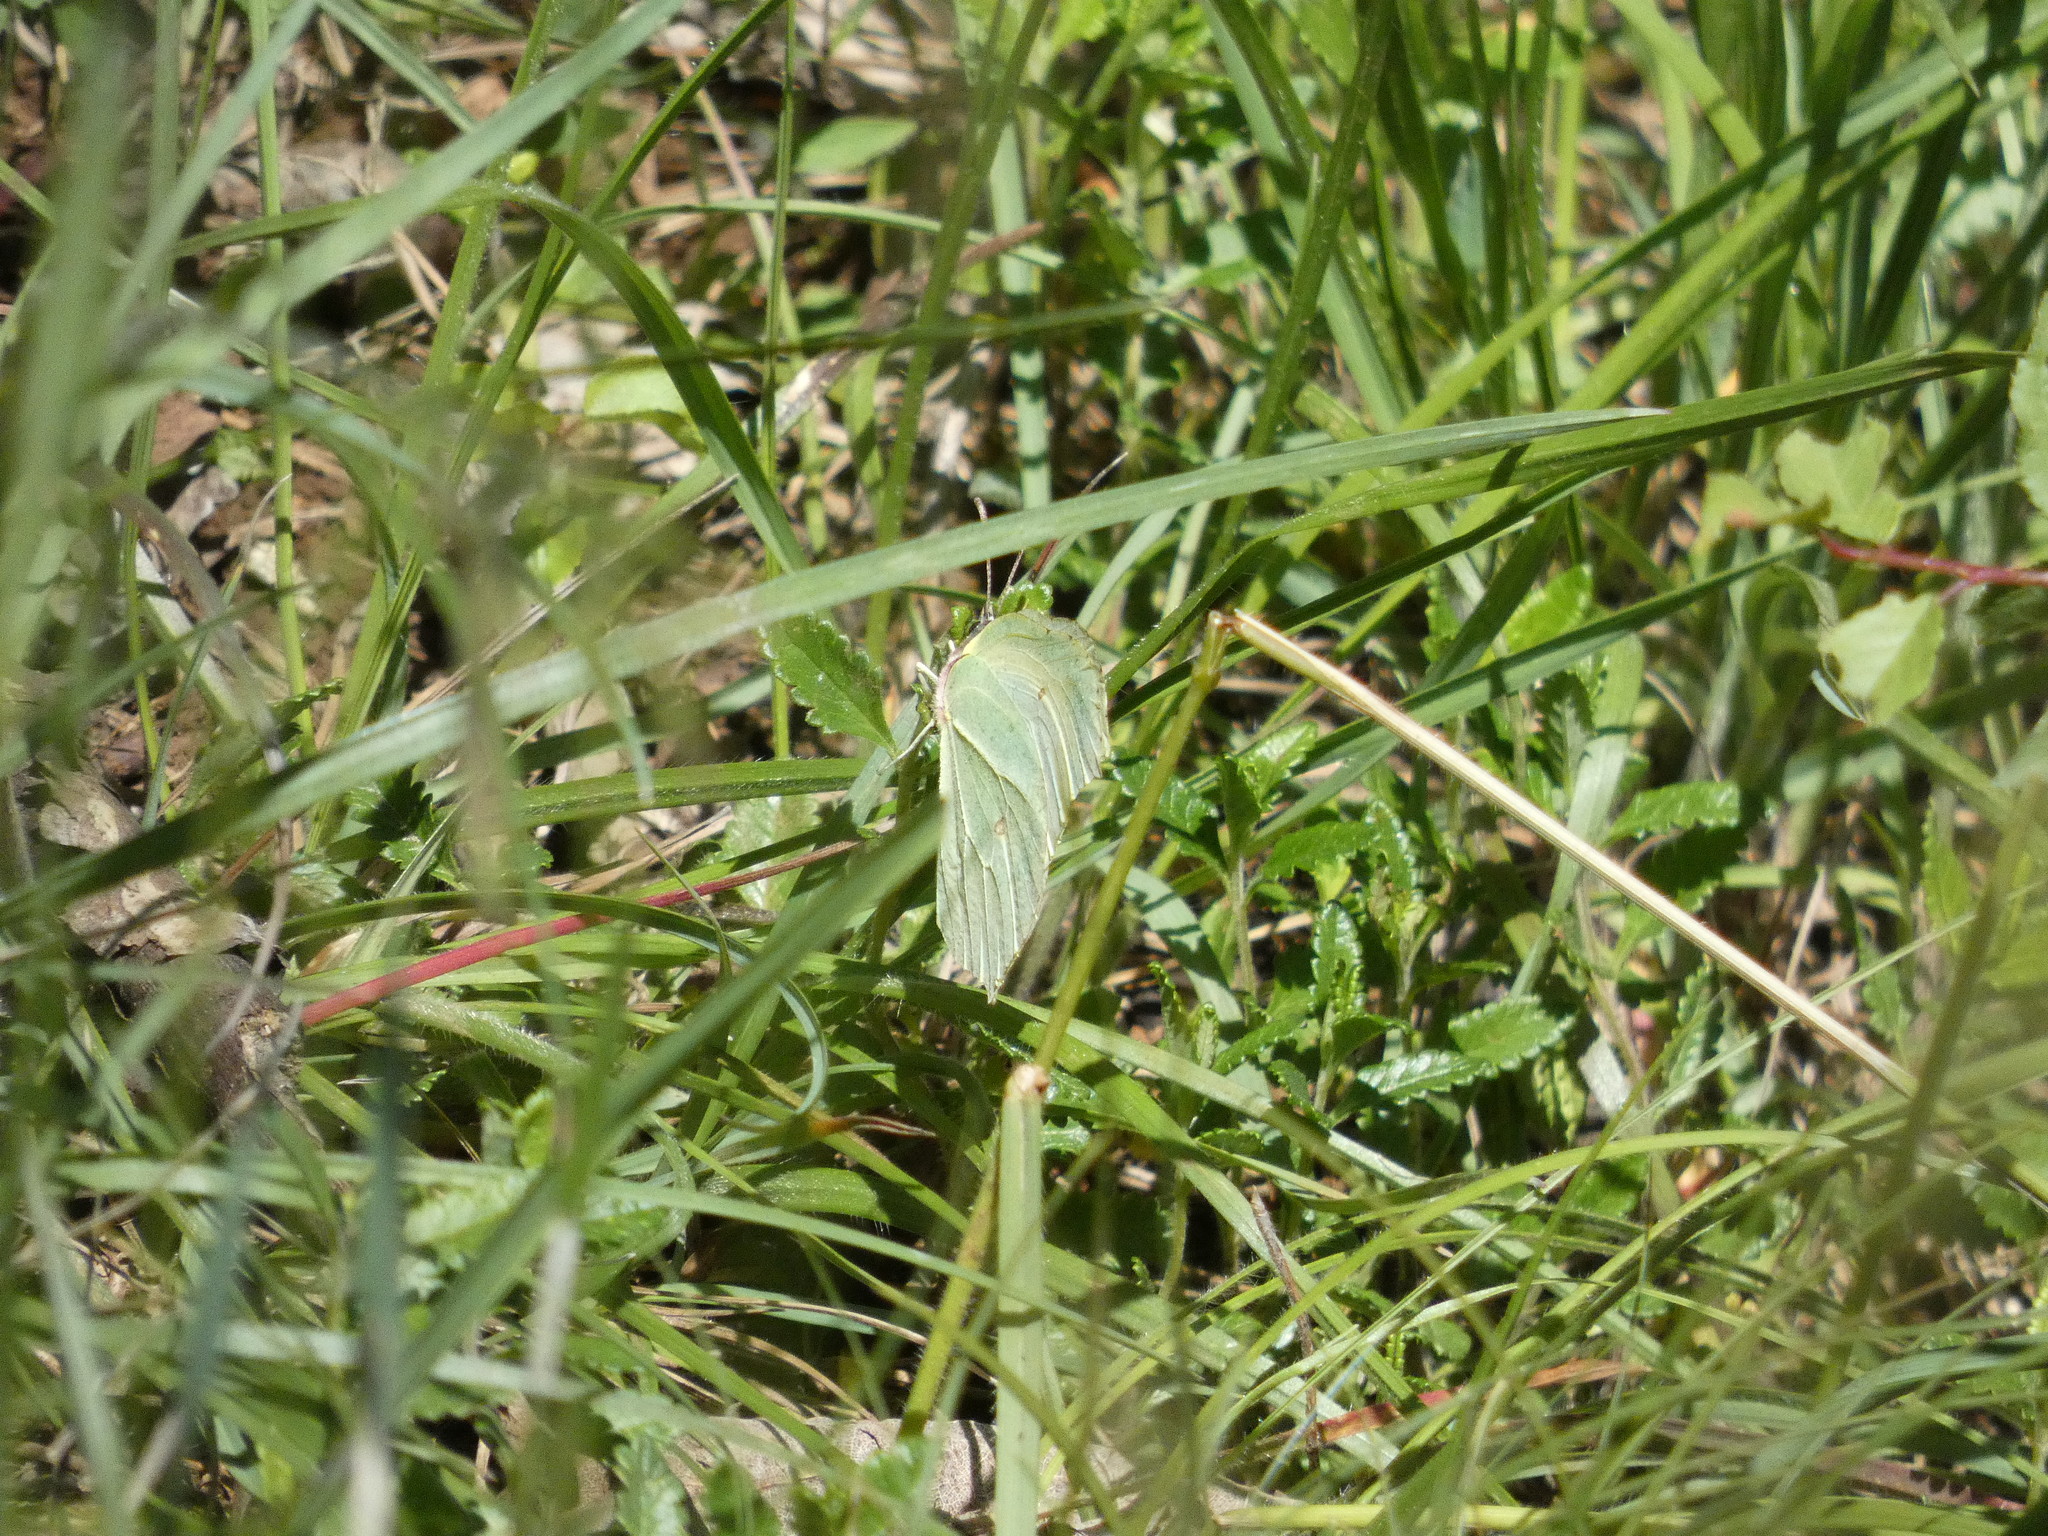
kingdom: Animalia
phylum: Arthropoda
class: Insecta
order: Lepidoptera
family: Pieridae
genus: Gonepteryx
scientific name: Gonepteryx rhamni
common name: Brimstone
